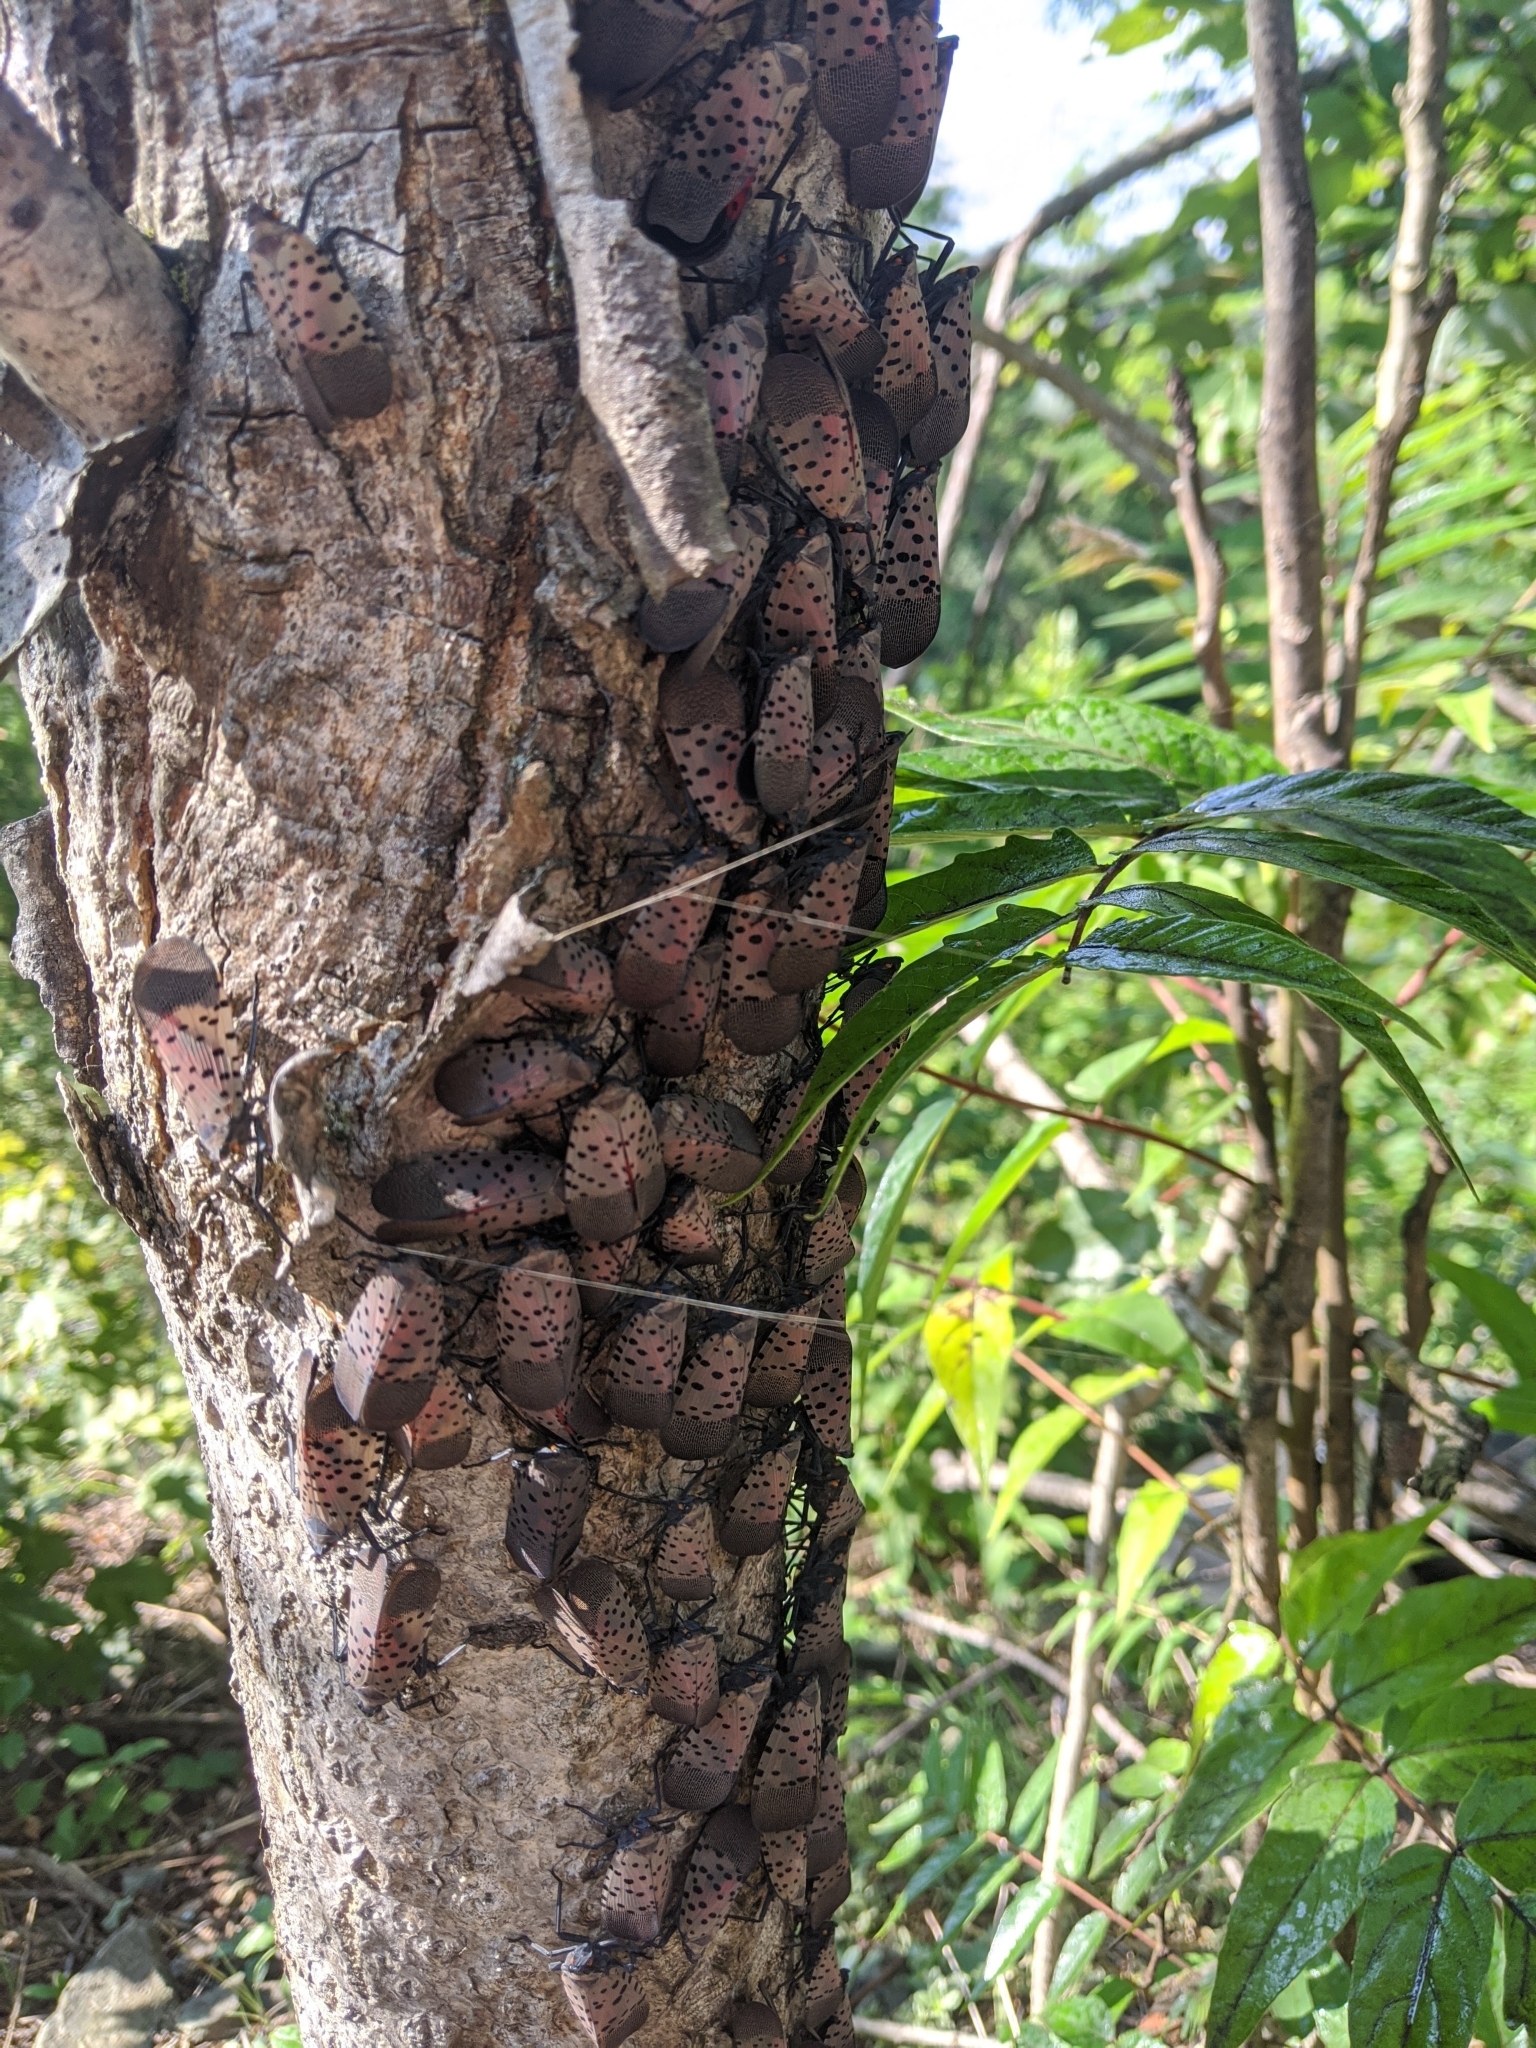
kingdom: Animalia
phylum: Arthropoda
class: Insecta
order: Hemiptera
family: Fulgoridae
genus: Lycorma
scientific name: Lycorma delicatula
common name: Spotted lanternfly
